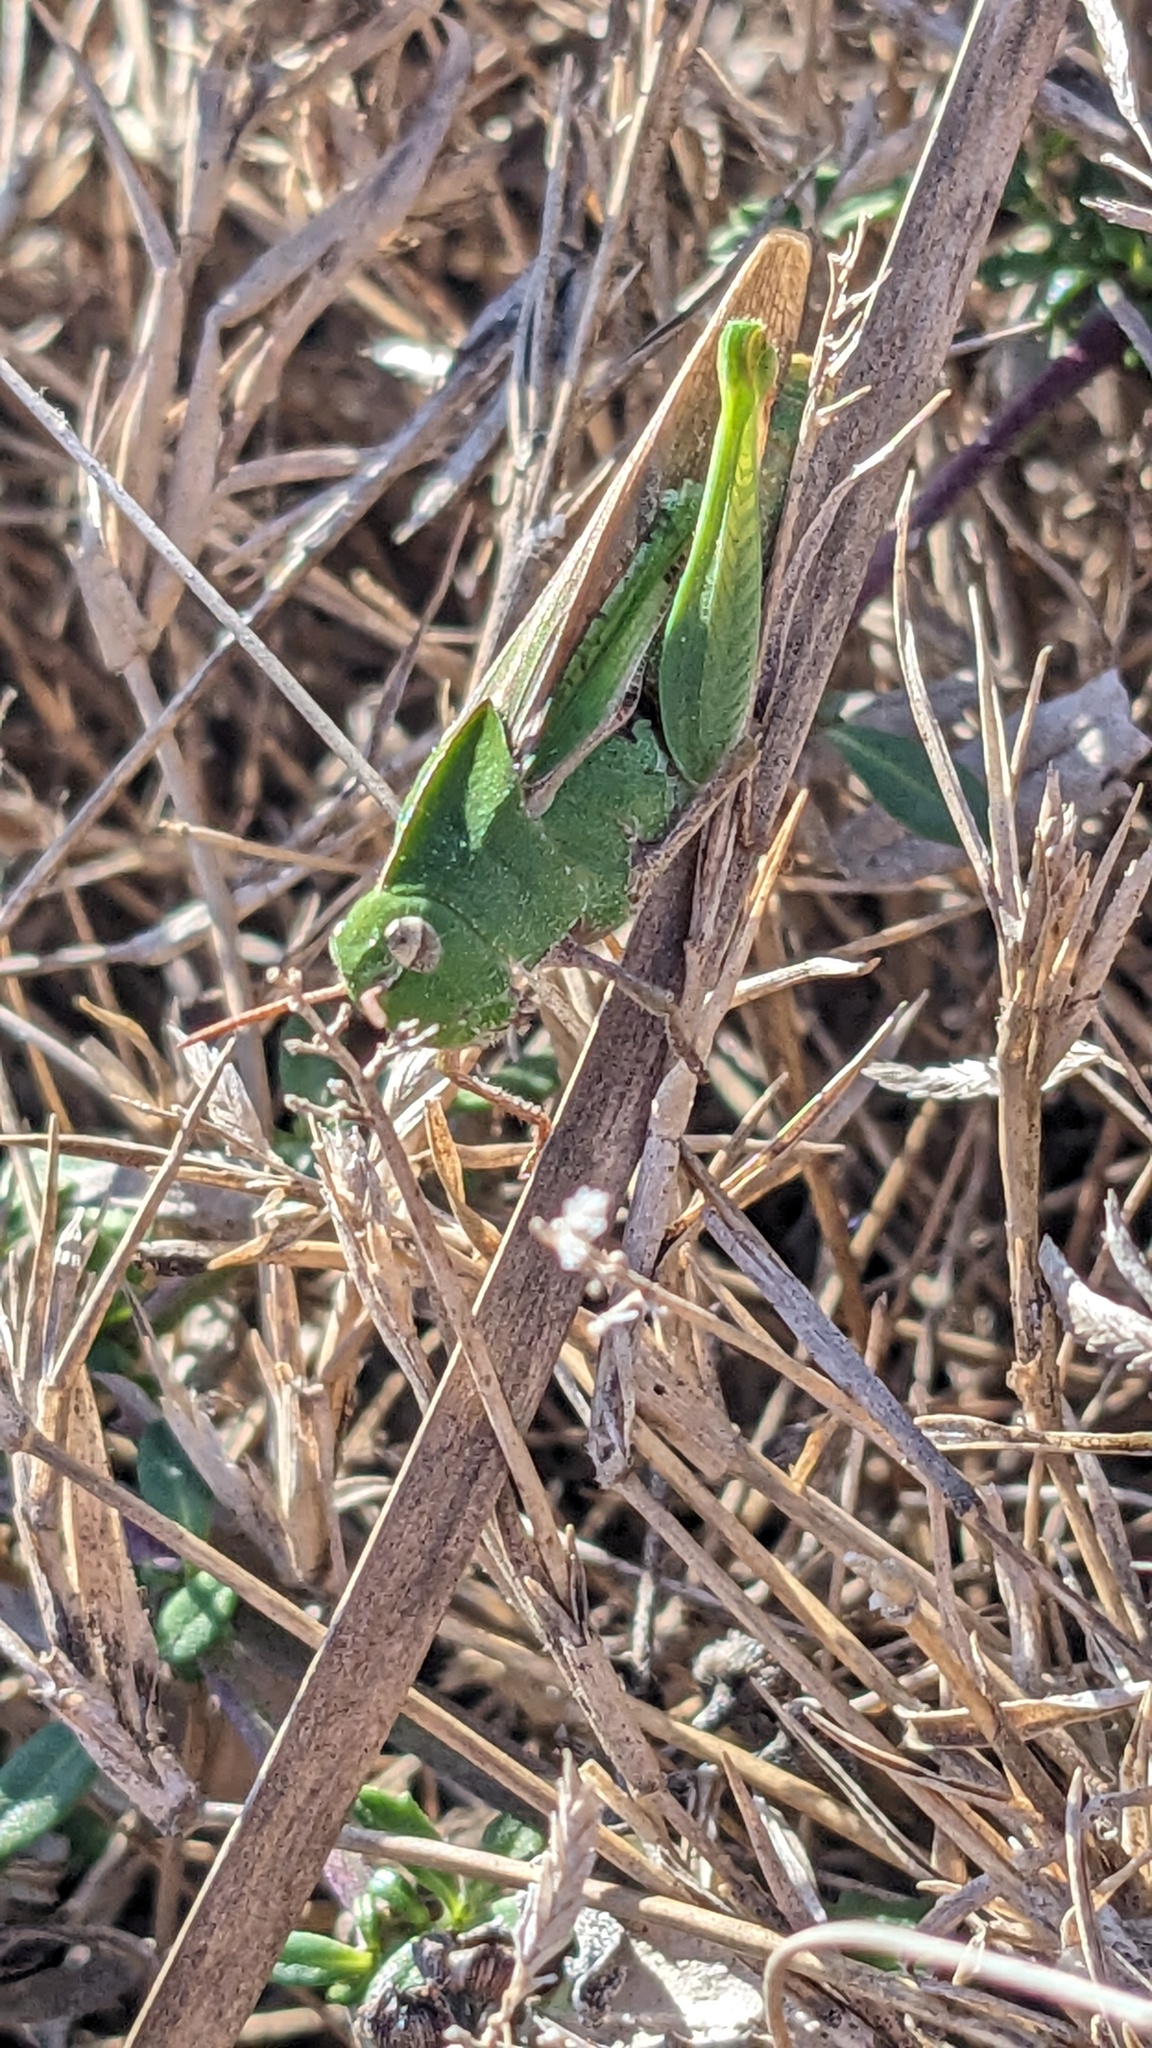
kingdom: Animalia
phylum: Arthropoda
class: Insecta
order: Orthoptera
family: Acrididae
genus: Chortophaga
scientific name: Chortophaga viridifasciata
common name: Green-striped grasshopper
